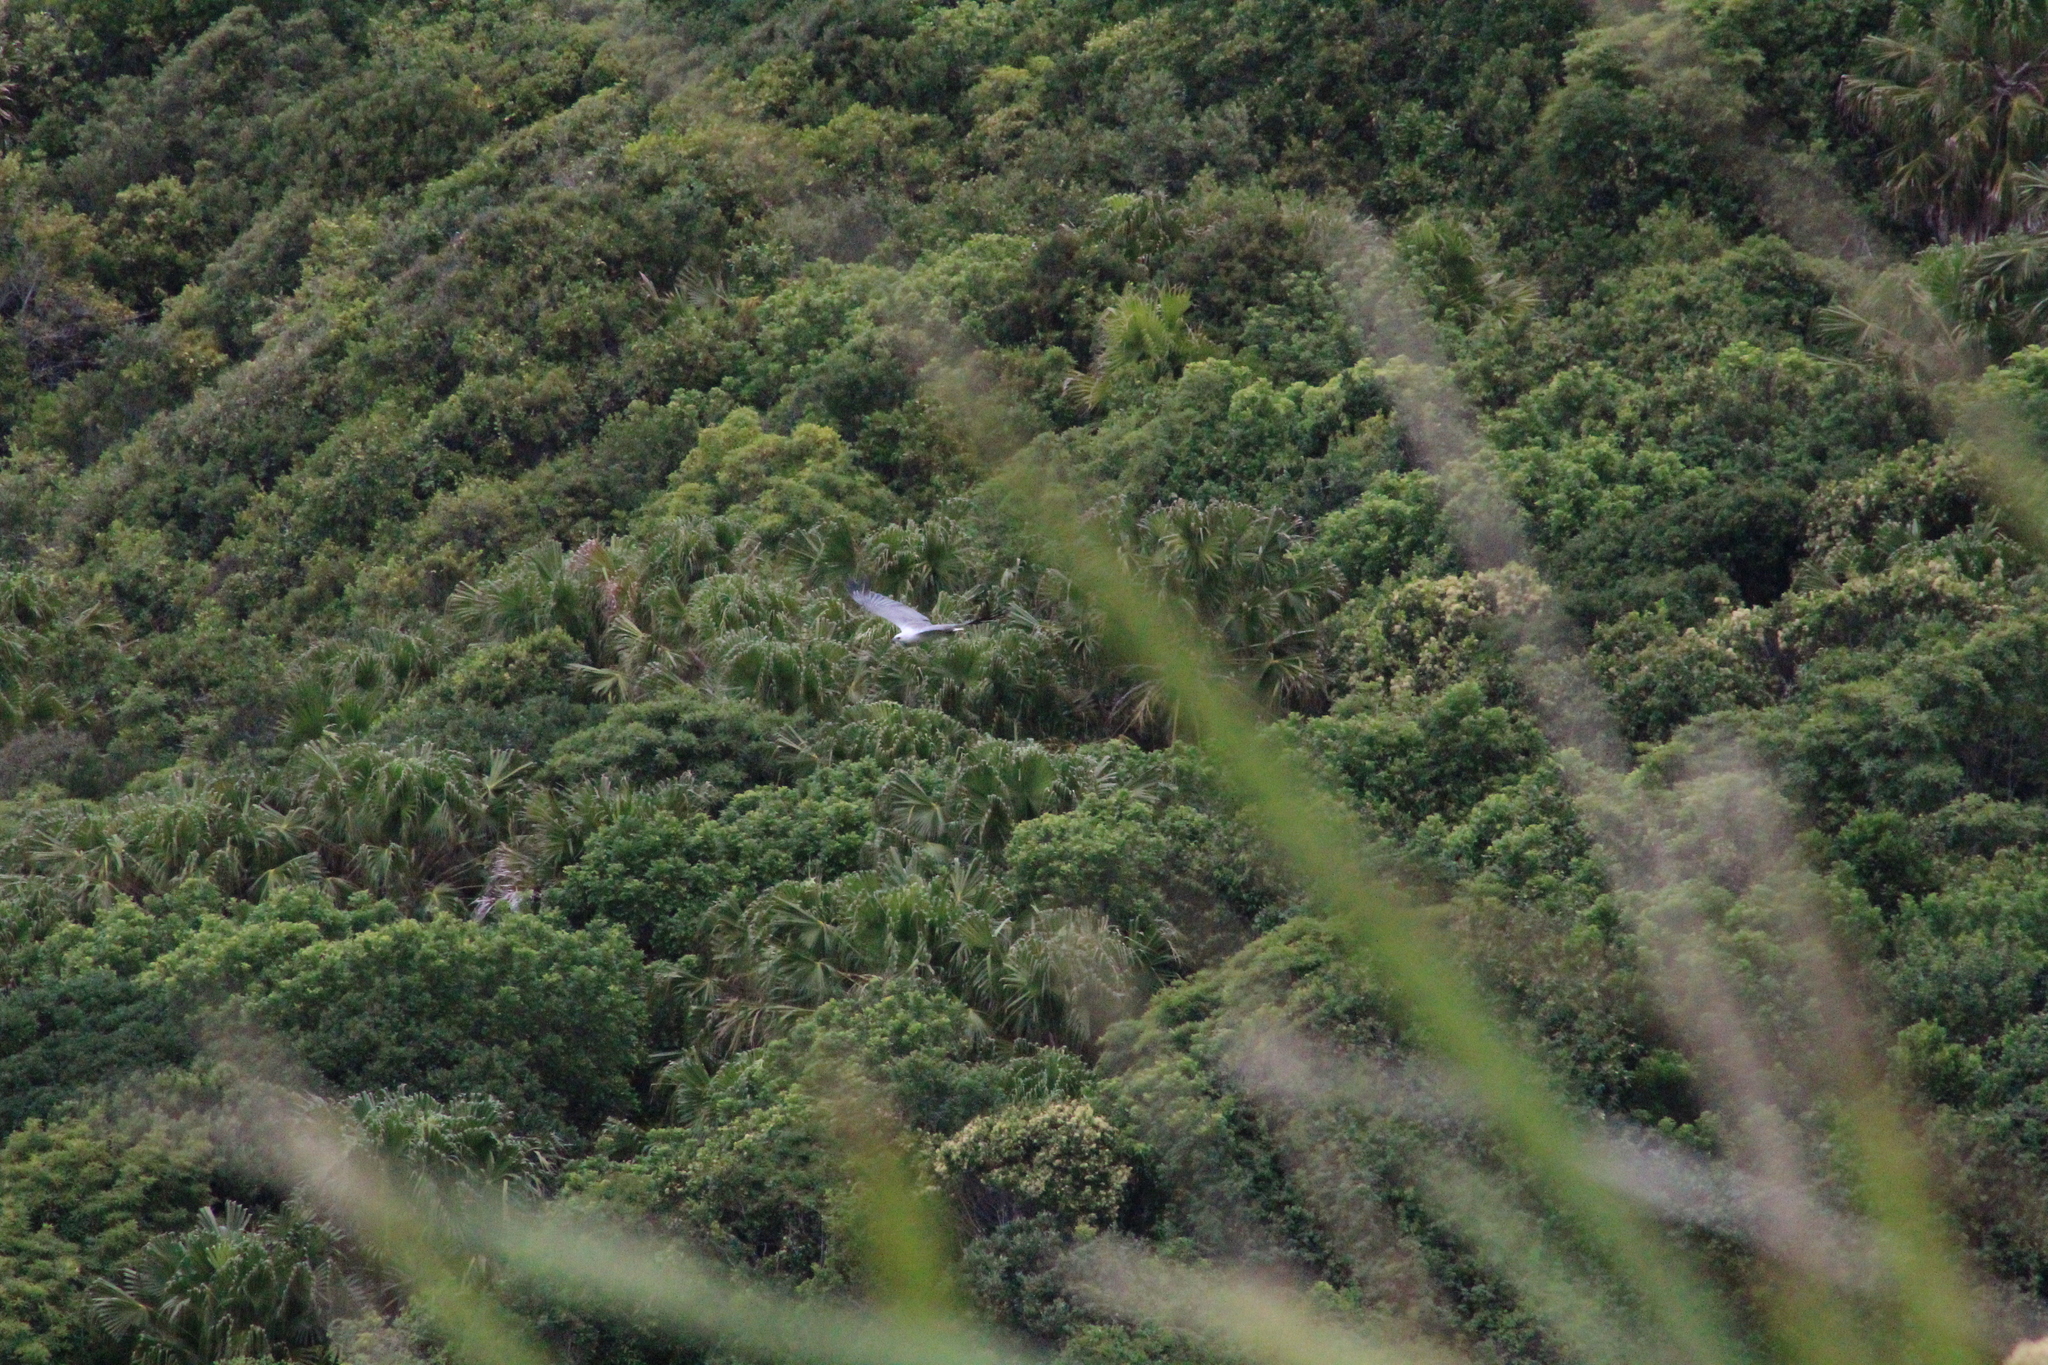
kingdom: Animalia
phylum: Chordata
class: Aves
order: Accipitriformes
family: Accipitridae
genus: Haliaeetus
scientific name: Haliaeetus leucogaster
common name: White-bellied sea eagle
